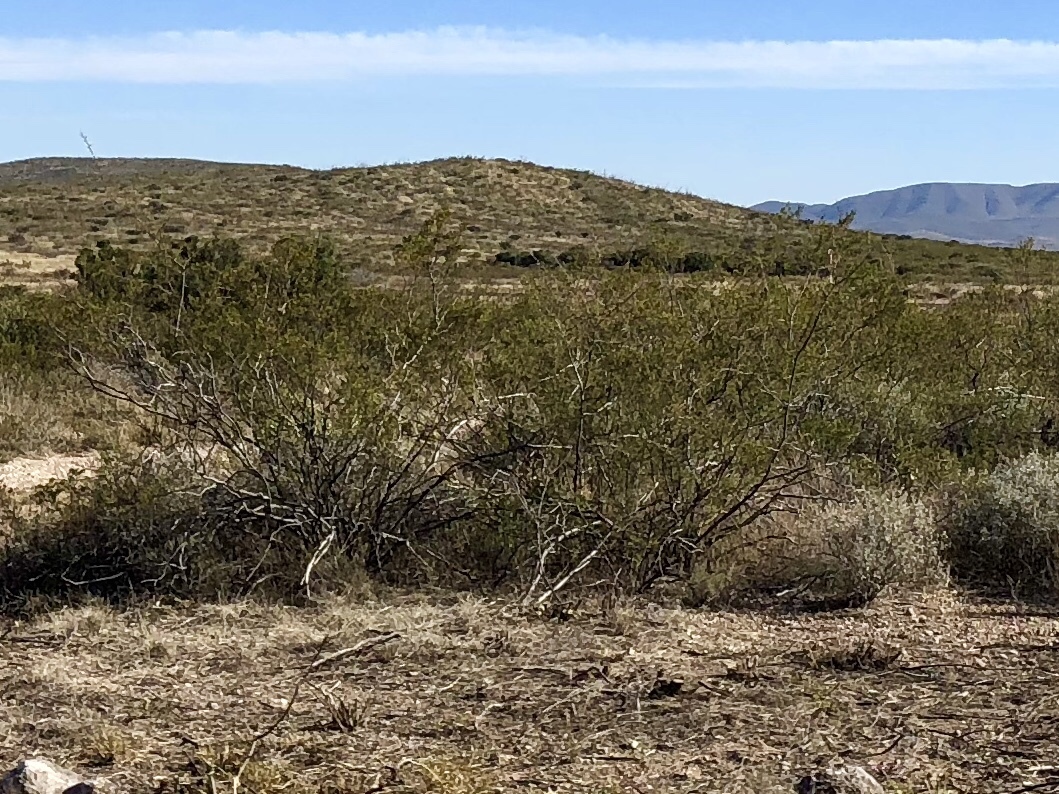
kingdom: Plantae
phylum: Tracheophyta
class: Magnoliopsida
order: Zygophyllales
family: Zygophyllaceae
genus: Larrea
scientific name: Larrea tridentata
